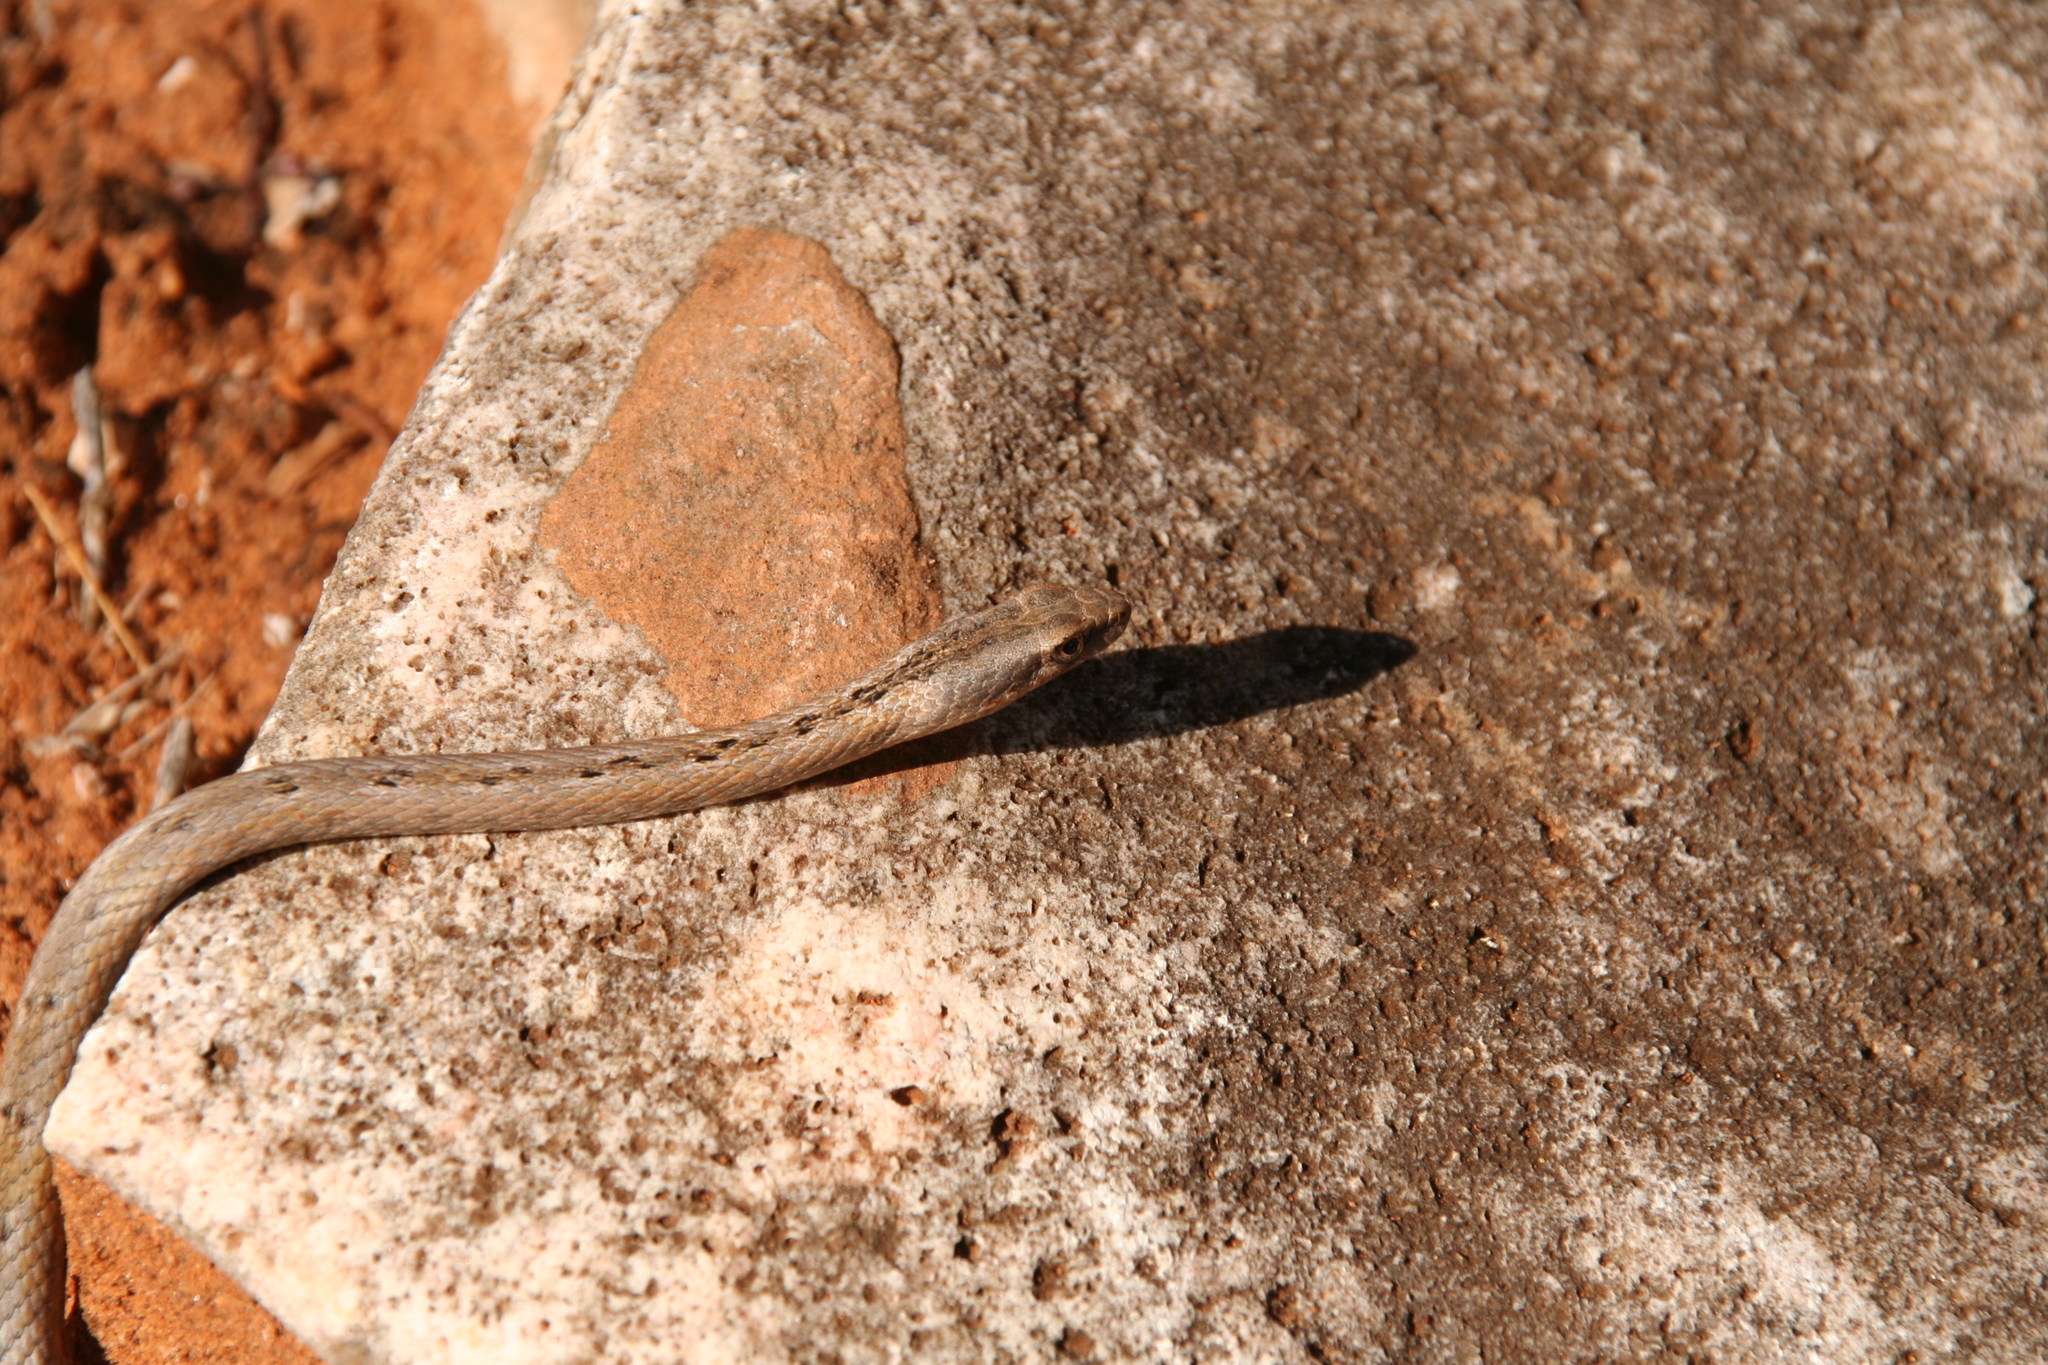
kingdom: Animalia
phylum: Chordata
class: Squamata
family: Psammophiidae
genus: Mimophis
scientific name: Mimophis mahfalensis
